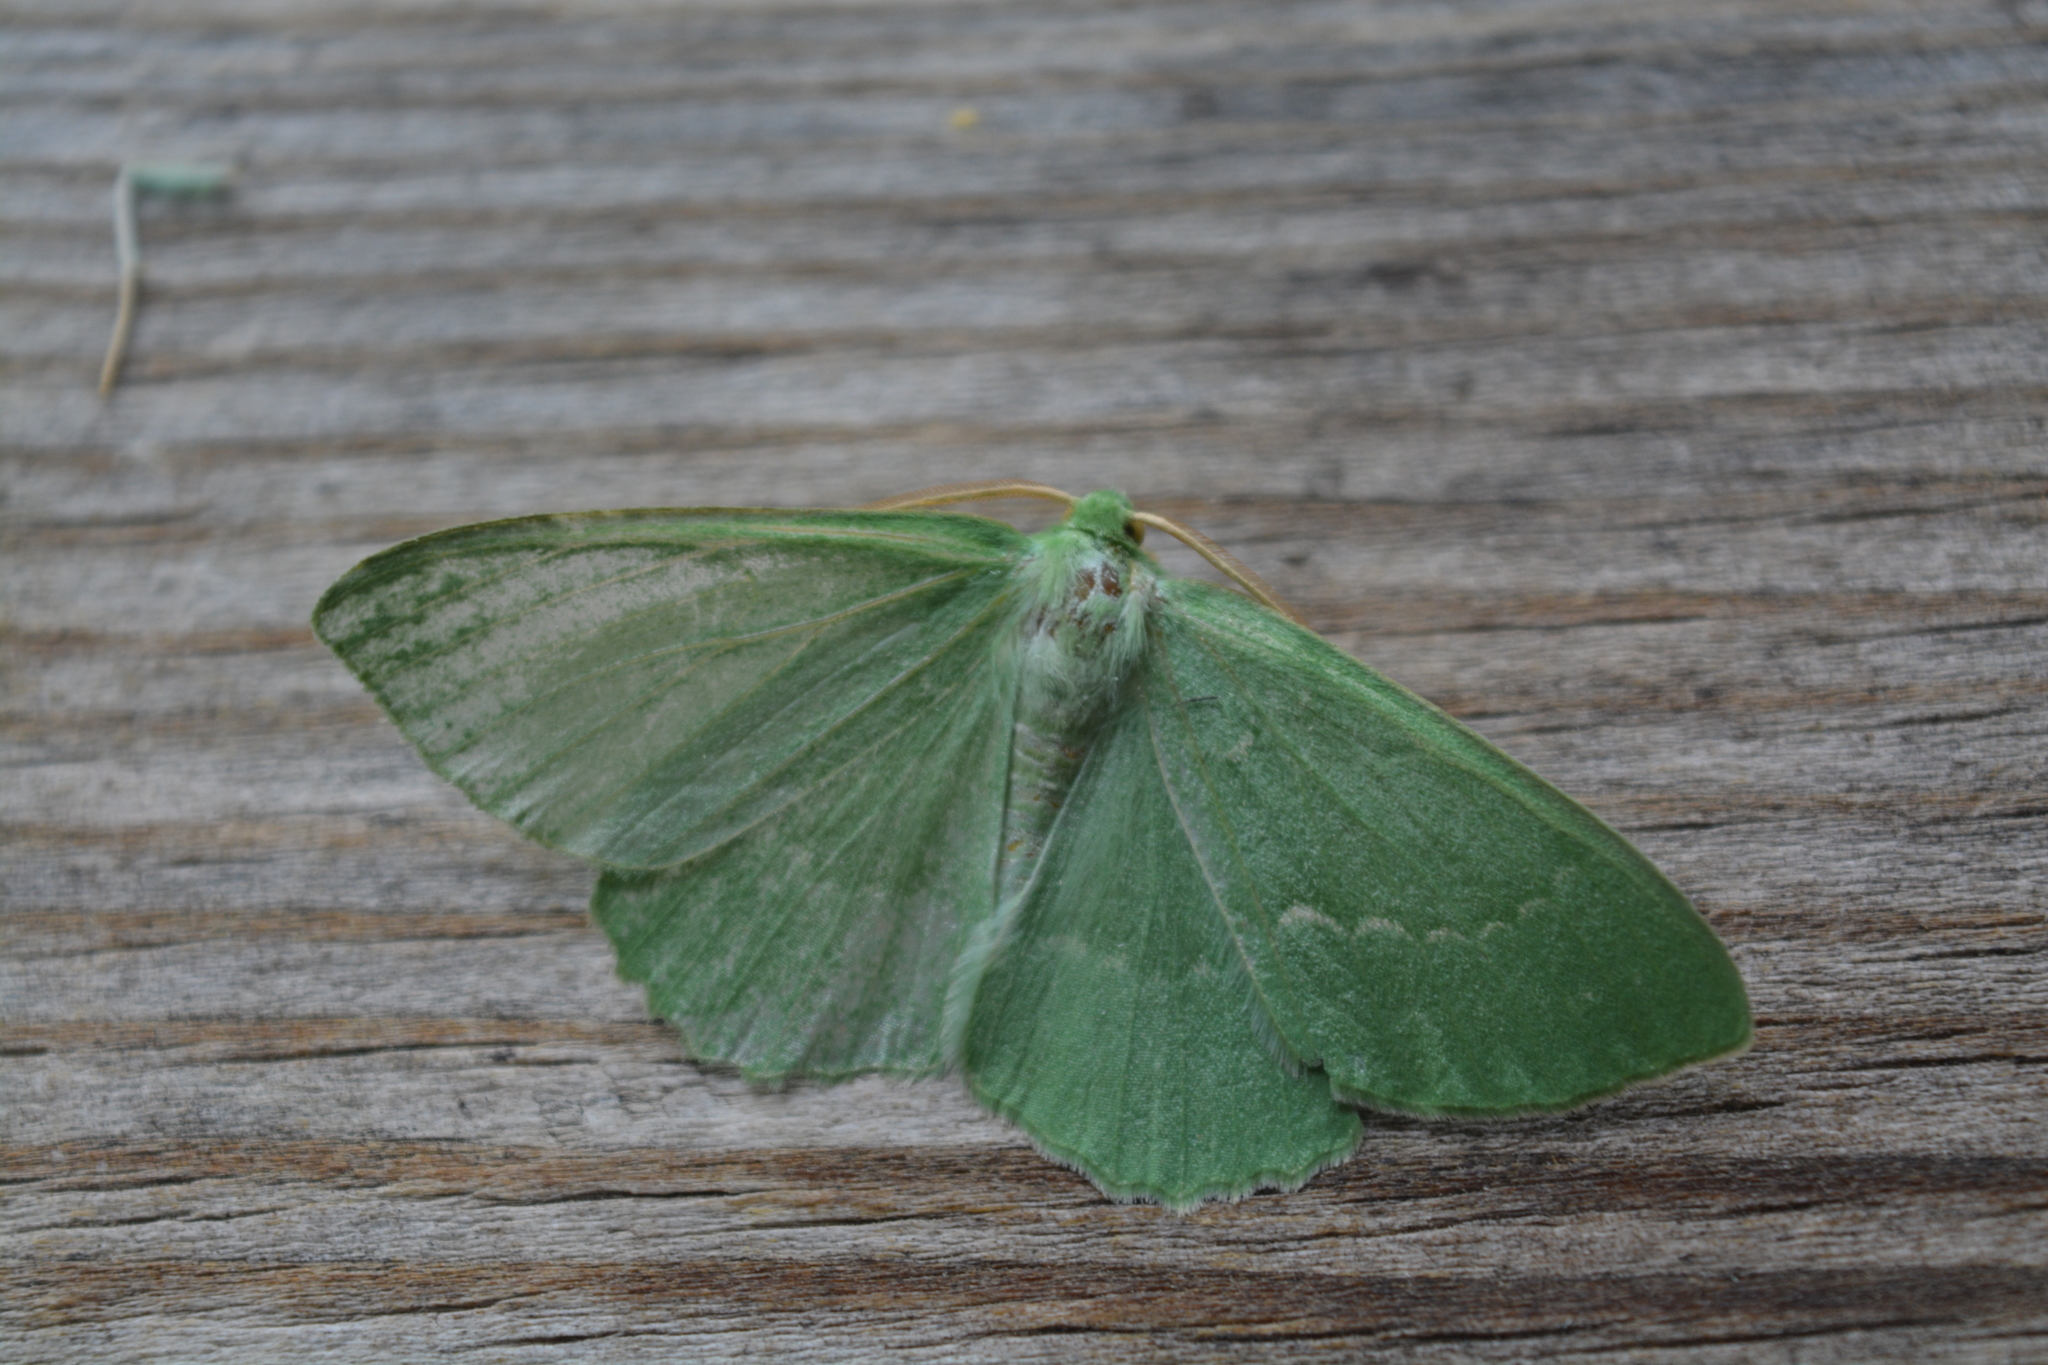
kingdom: Animalia
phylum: Arthropoda
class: Insecta
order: Lepidoptera
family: Geometridae
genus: Geometra
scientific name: Geometra papilionaria
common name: Large emerald
